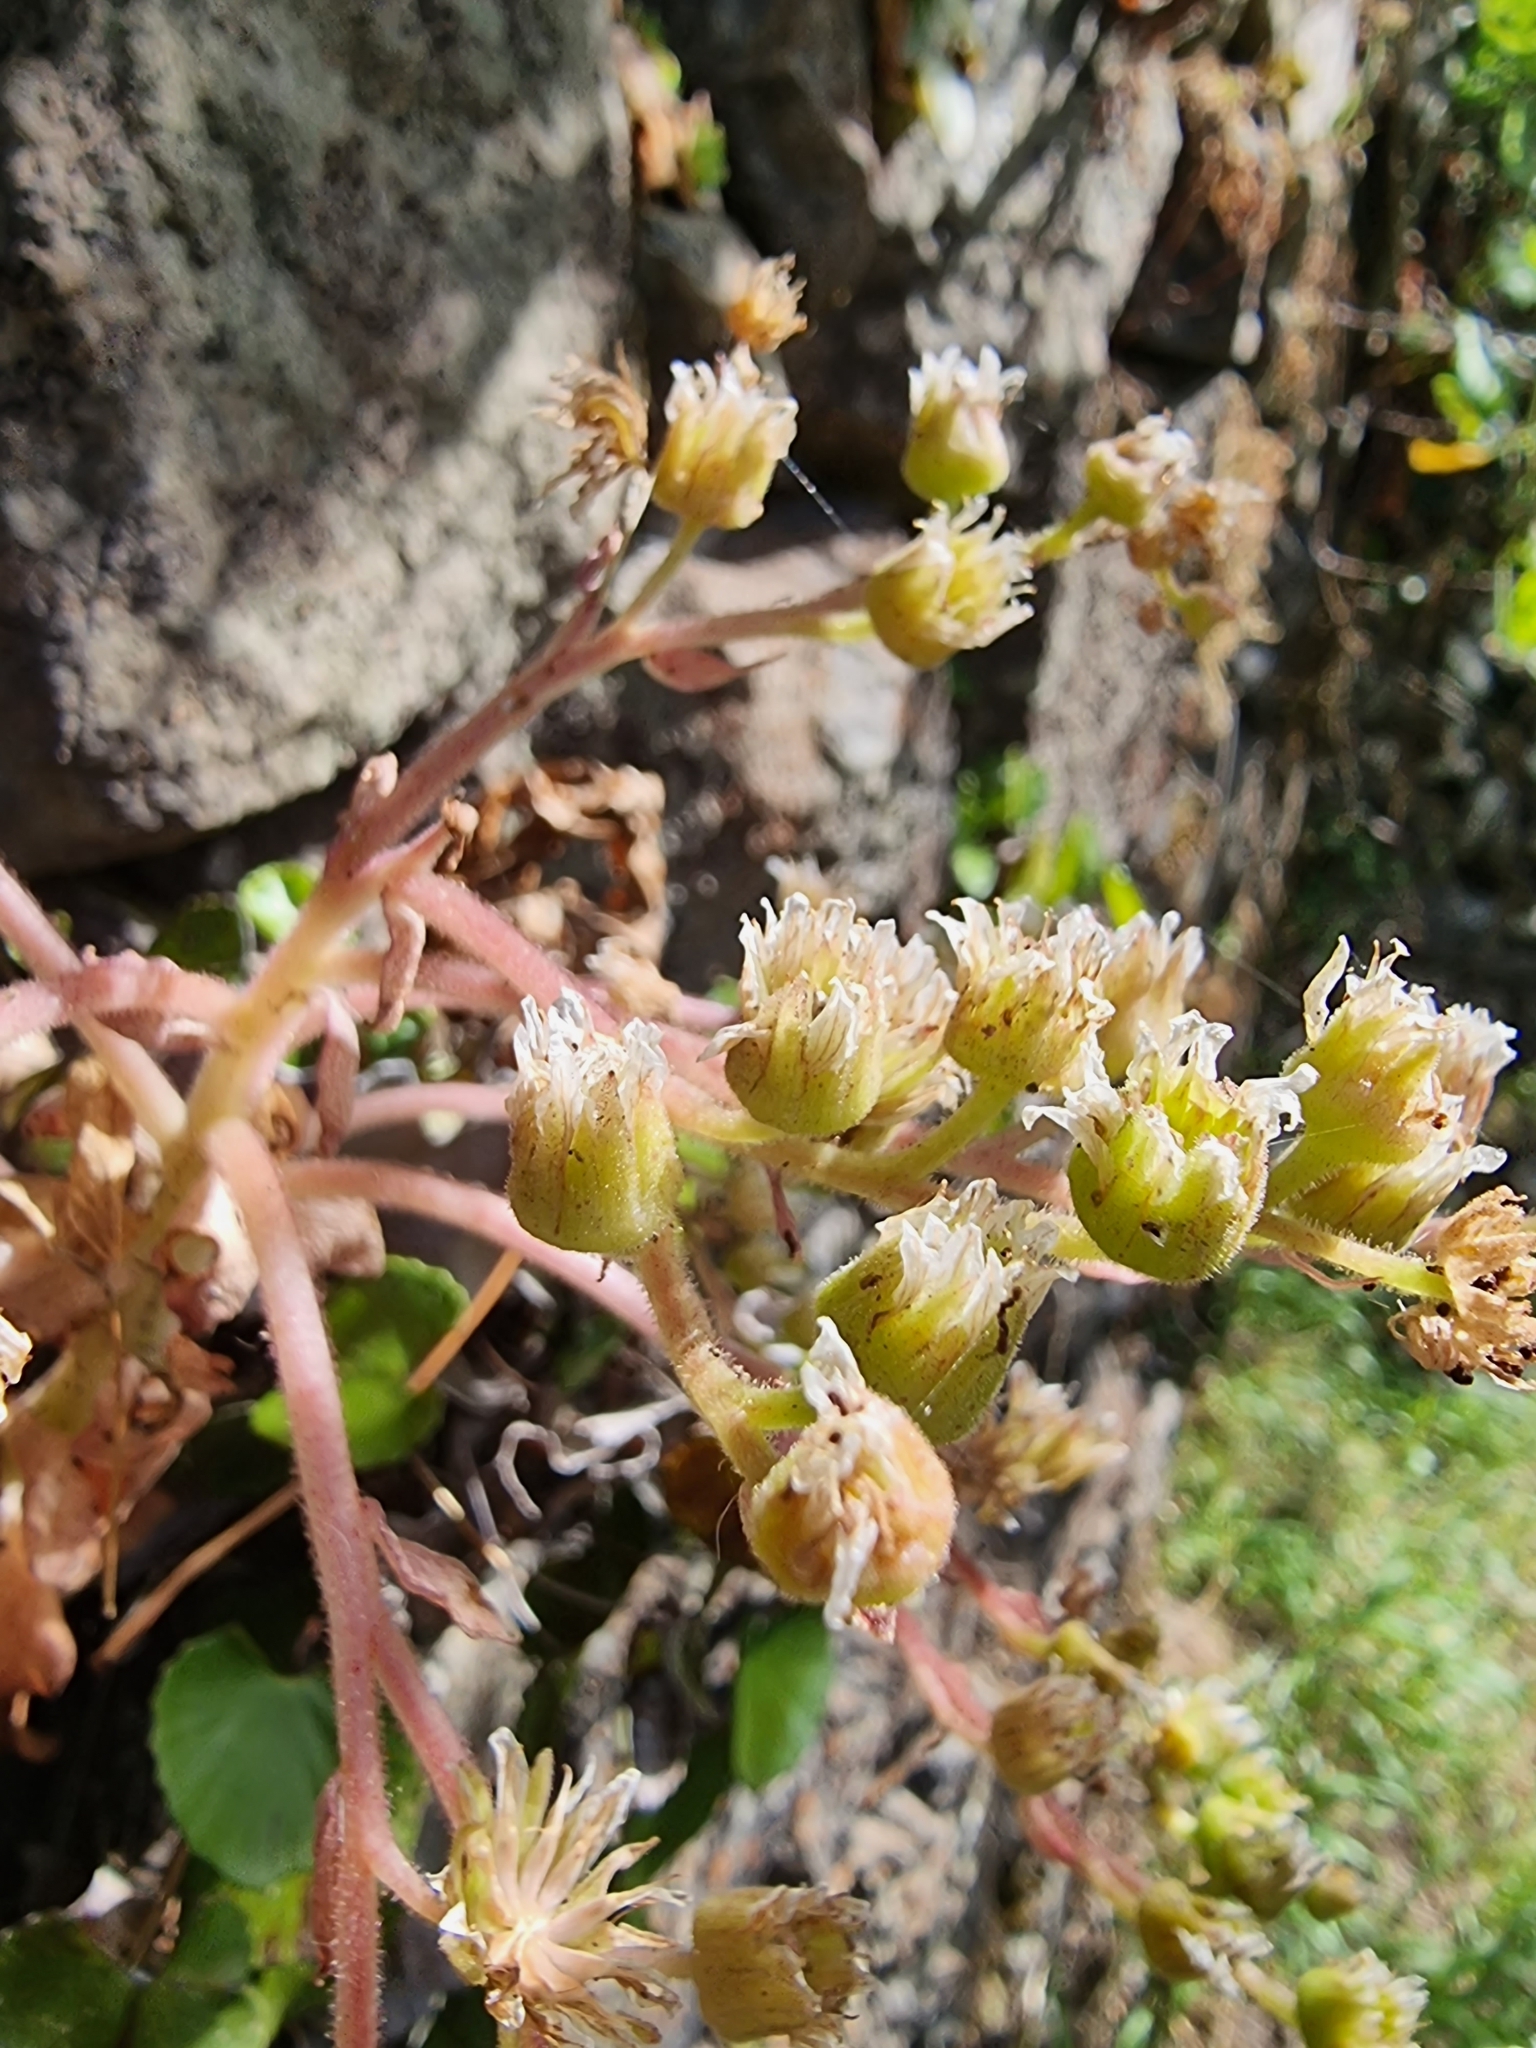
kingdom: Plantae
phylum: Tracheophyta
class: Magnoliopsida
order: Saxifragales
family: Crassulaceae
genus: Aeonium
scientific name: Aeonium glandulosum
